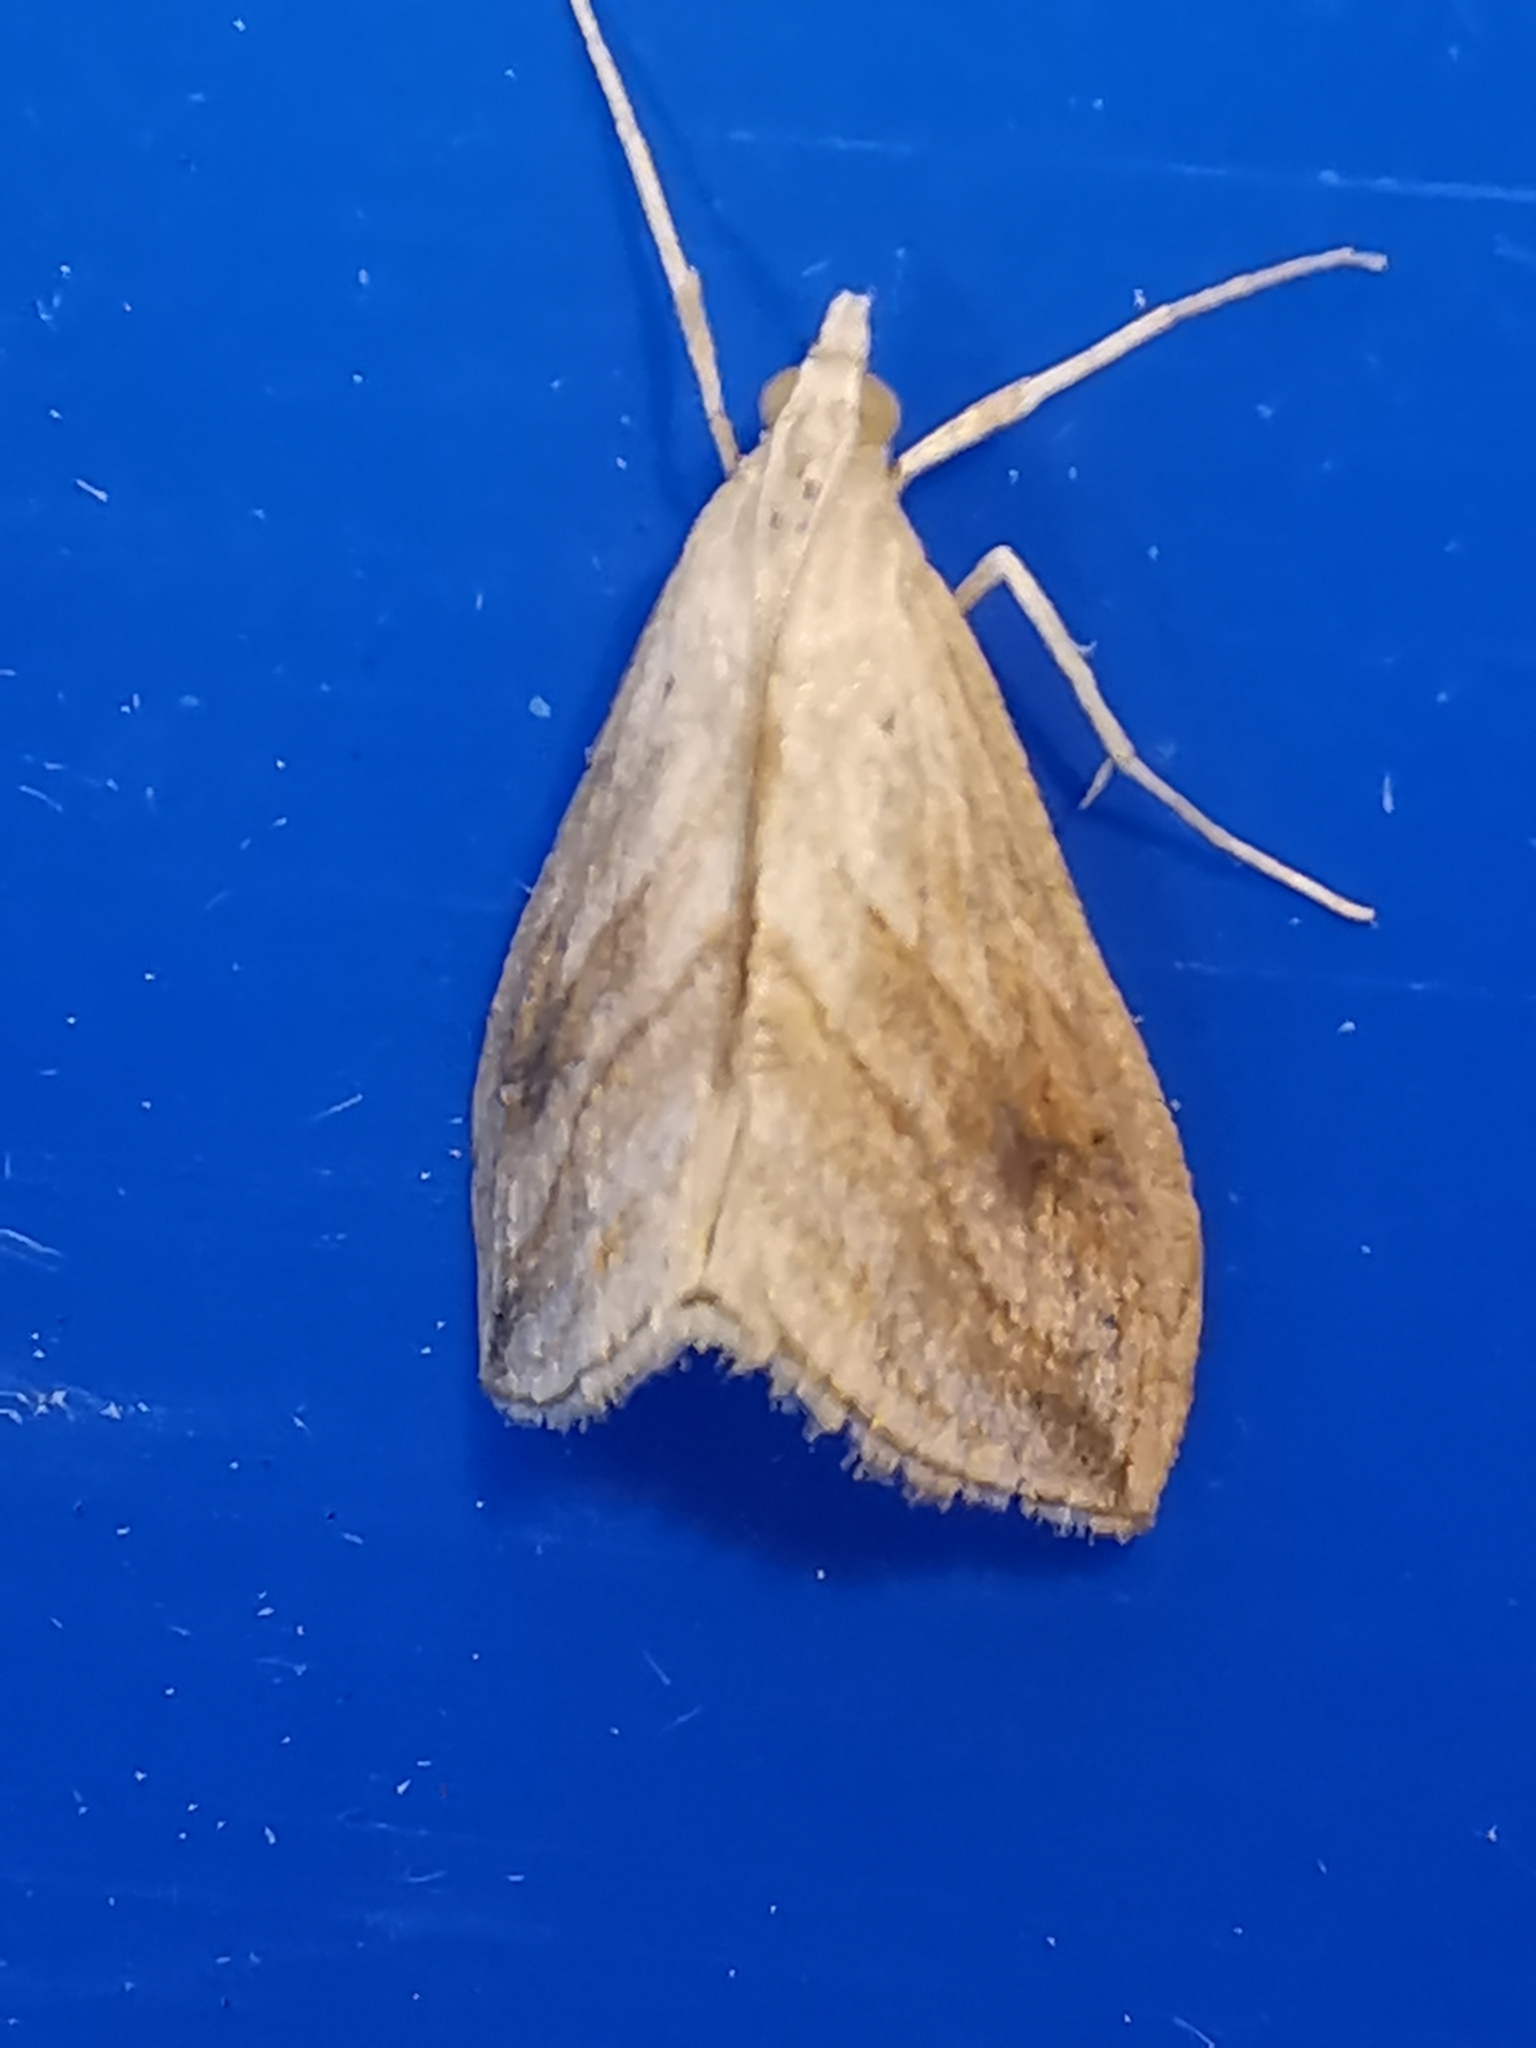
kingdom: Animalia
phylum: Arthropoda
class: Insecta
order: Lepidoptera
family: Crambidae
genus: Evergestis
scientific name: Evergestis forficalis
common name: Garden pebble
